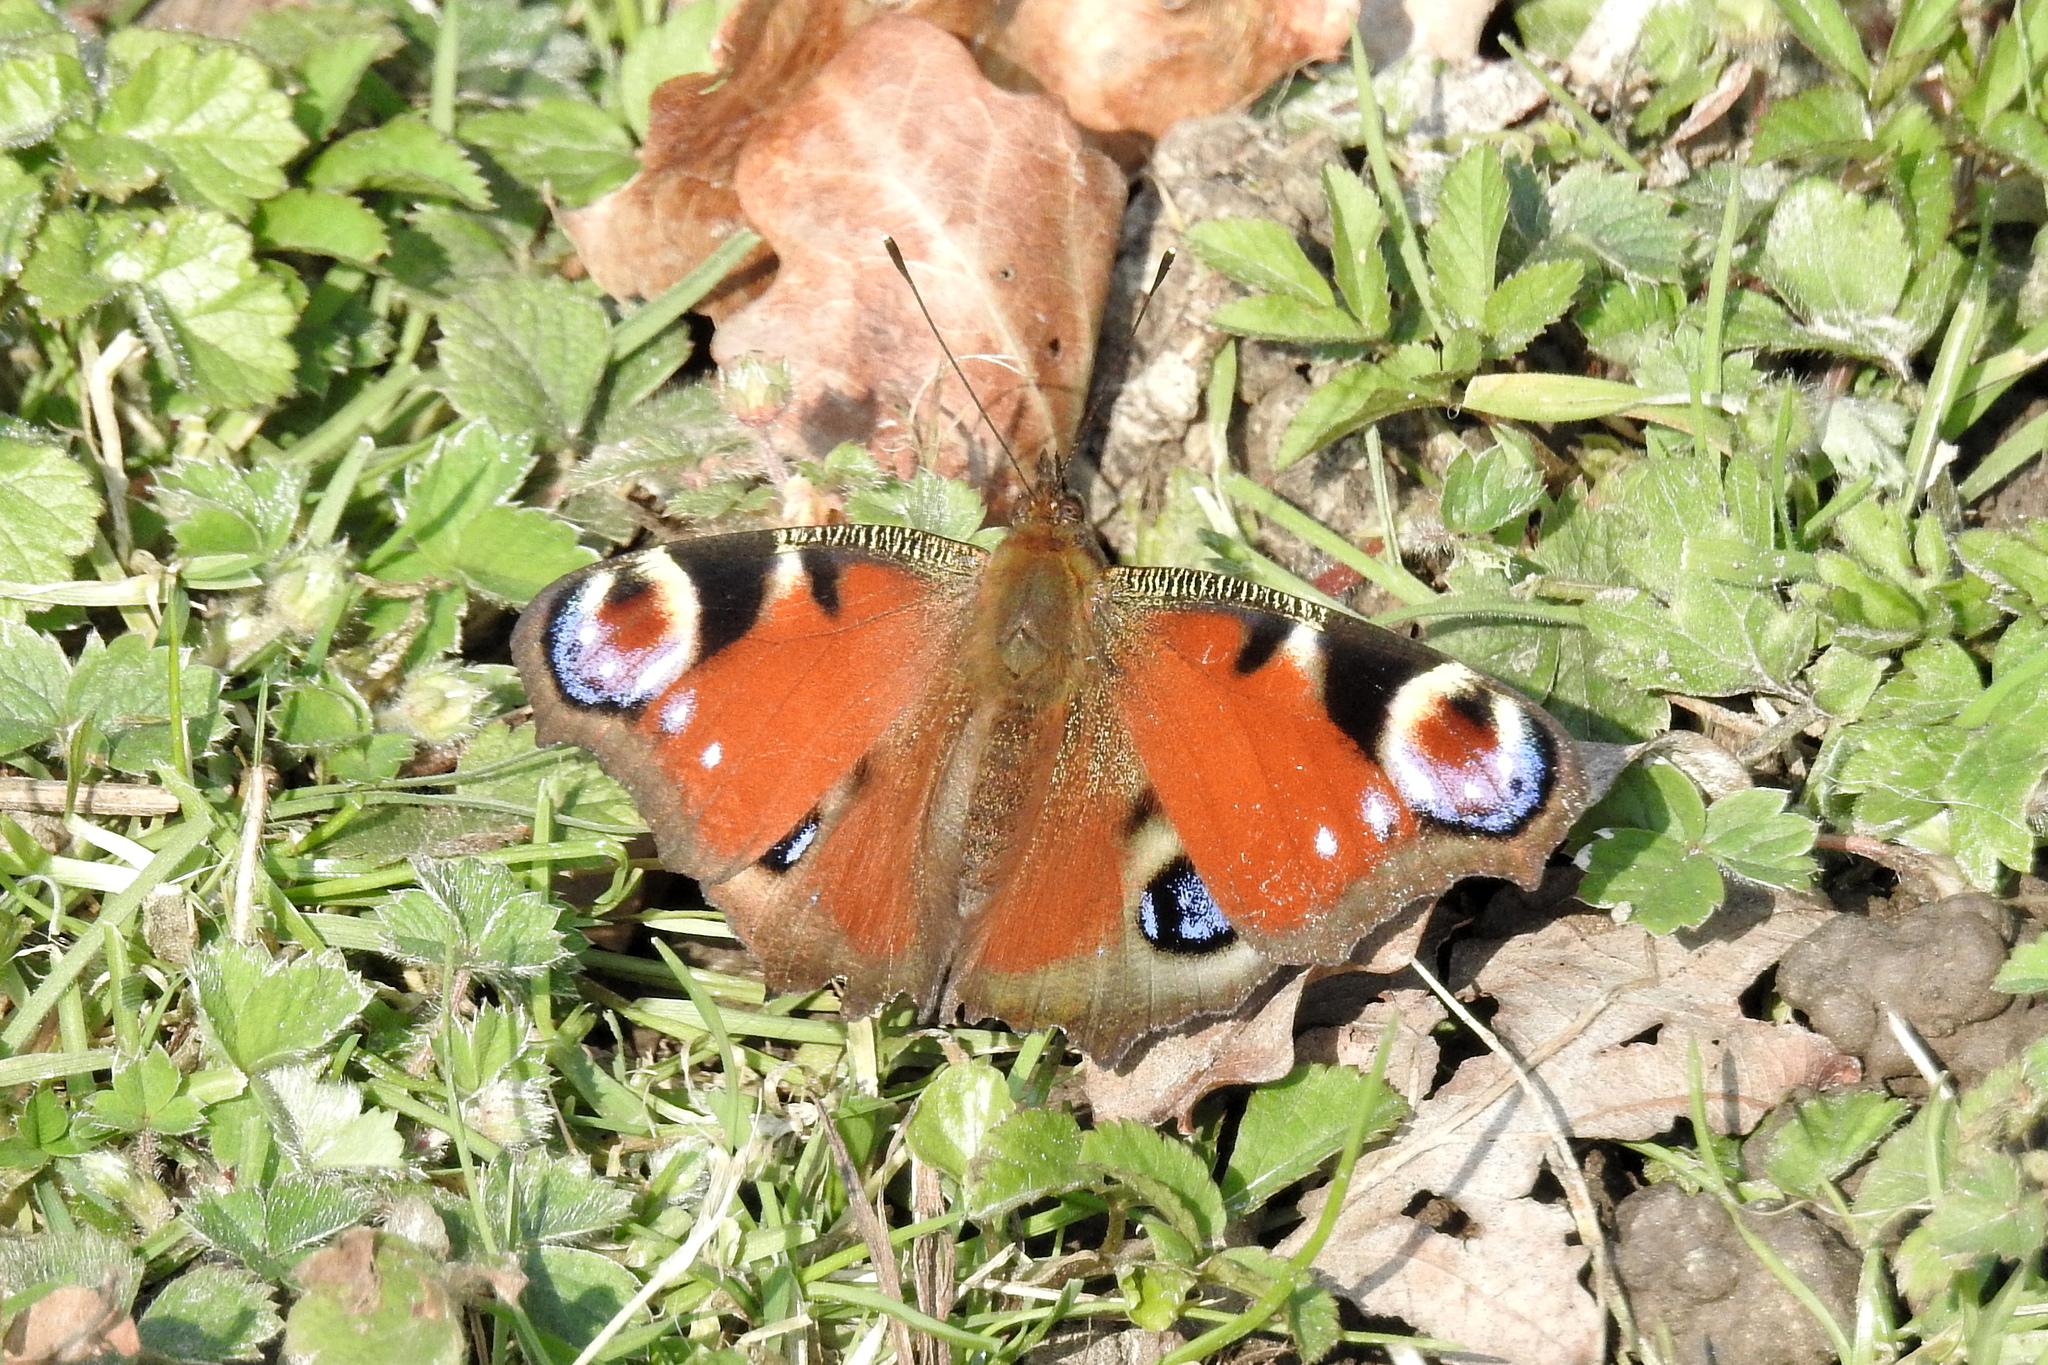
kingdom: Animalia
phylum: Arthropoda
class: Insecta
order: Lepidoptera
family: Nymphalidae
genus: Aglais
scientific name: Aglais io
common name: Peacock
